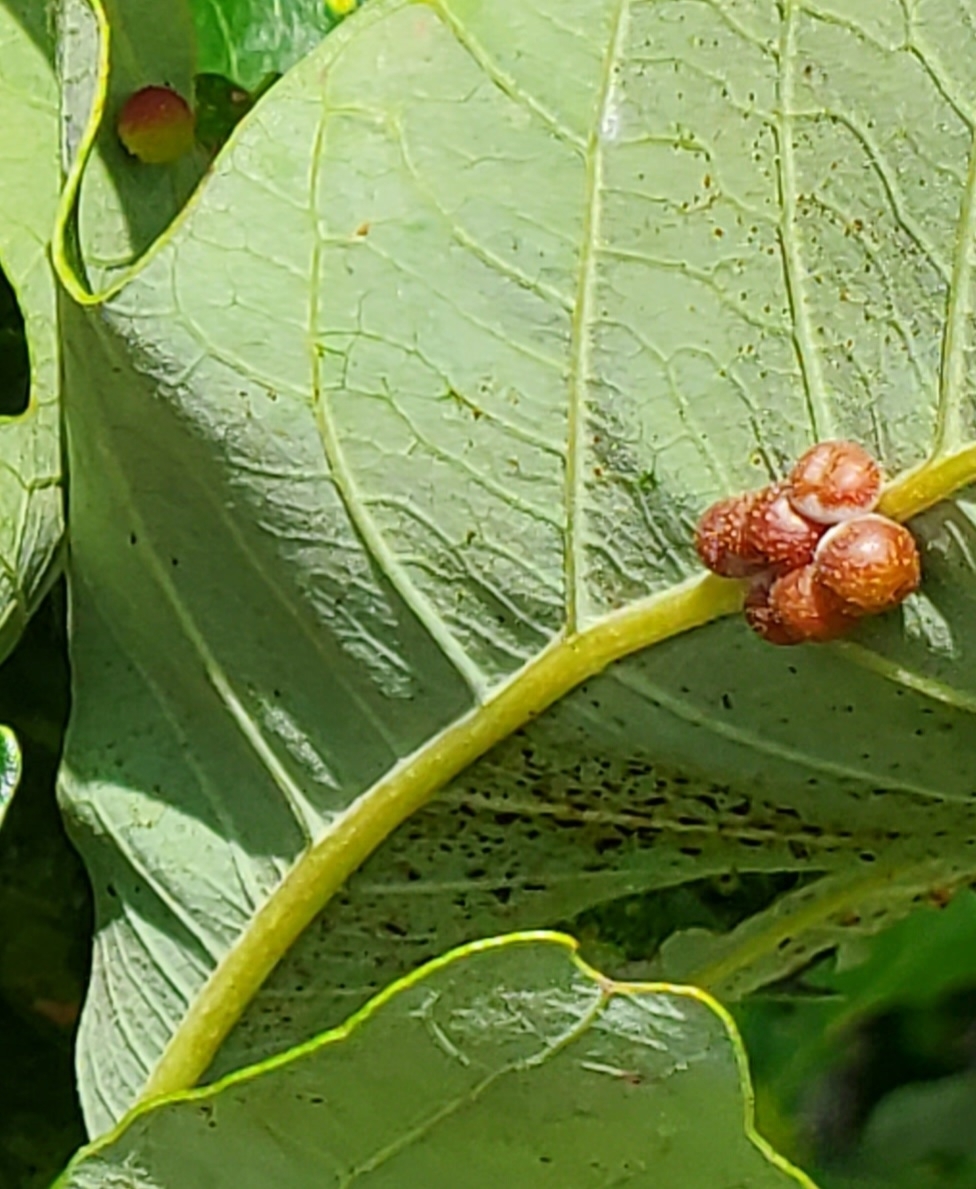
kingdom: Animalia
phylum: Arthropoda
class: Insecta
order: Hymenoptera
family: Cynipidae
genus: Andricus
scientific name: Andricus
